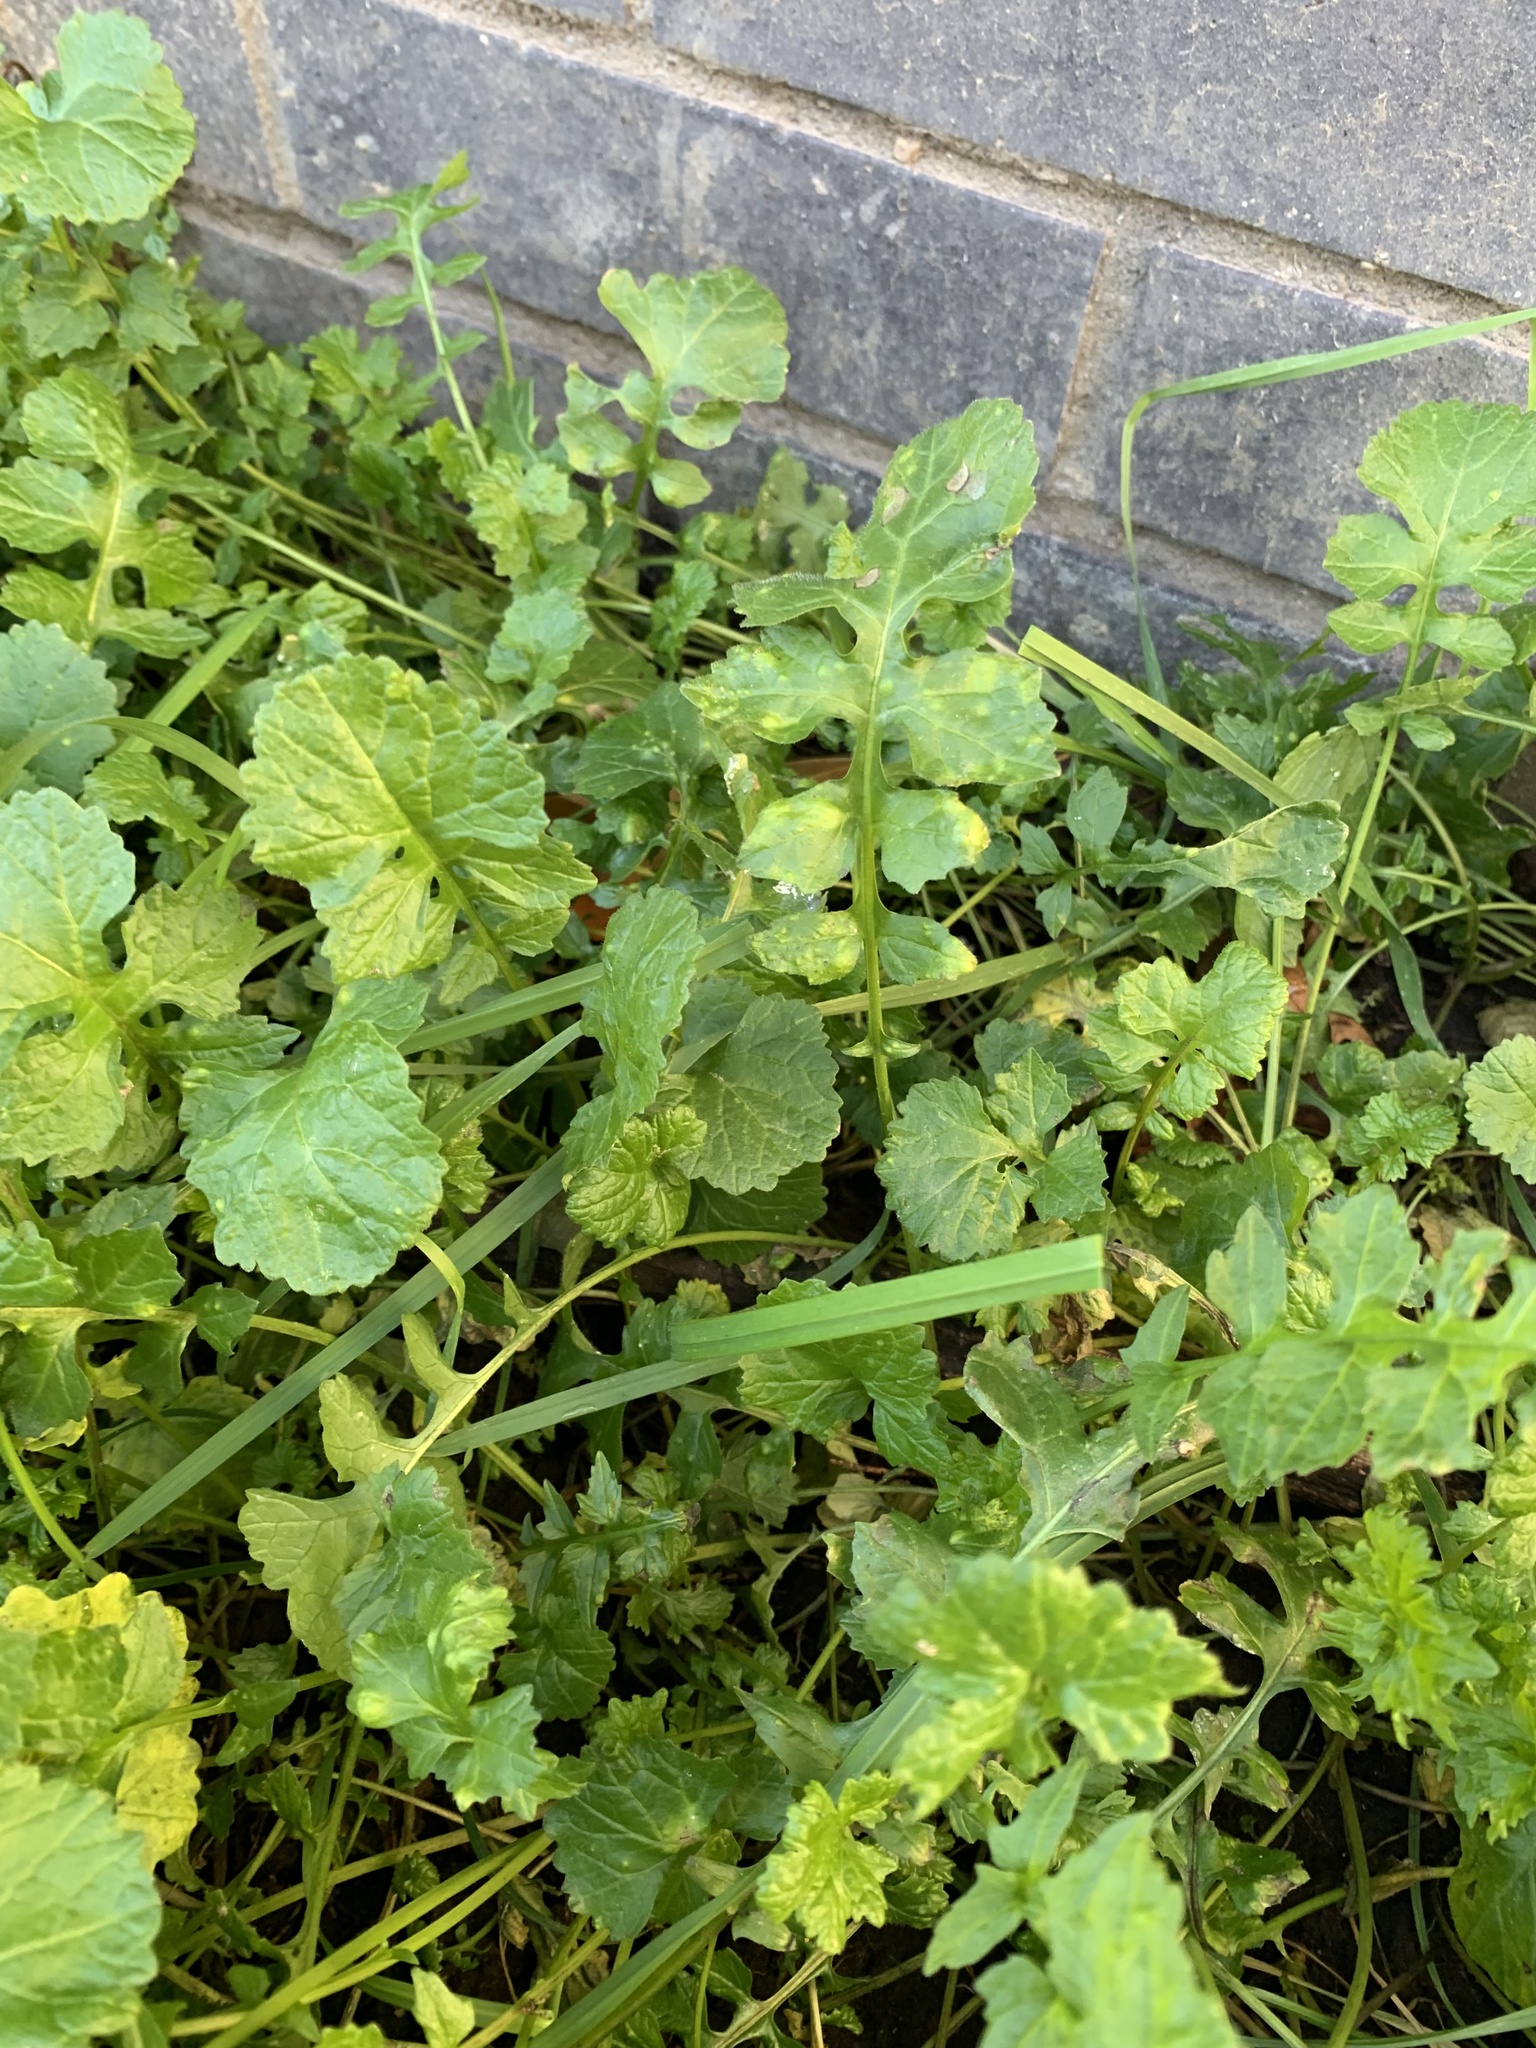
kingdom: Plantae
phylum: Tracheophyta
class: Magnoliopsida
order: Brassicales
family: Brassicaceae
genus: Rorippa
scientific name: Rorippa palustris
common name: Marsh yellow-cress
